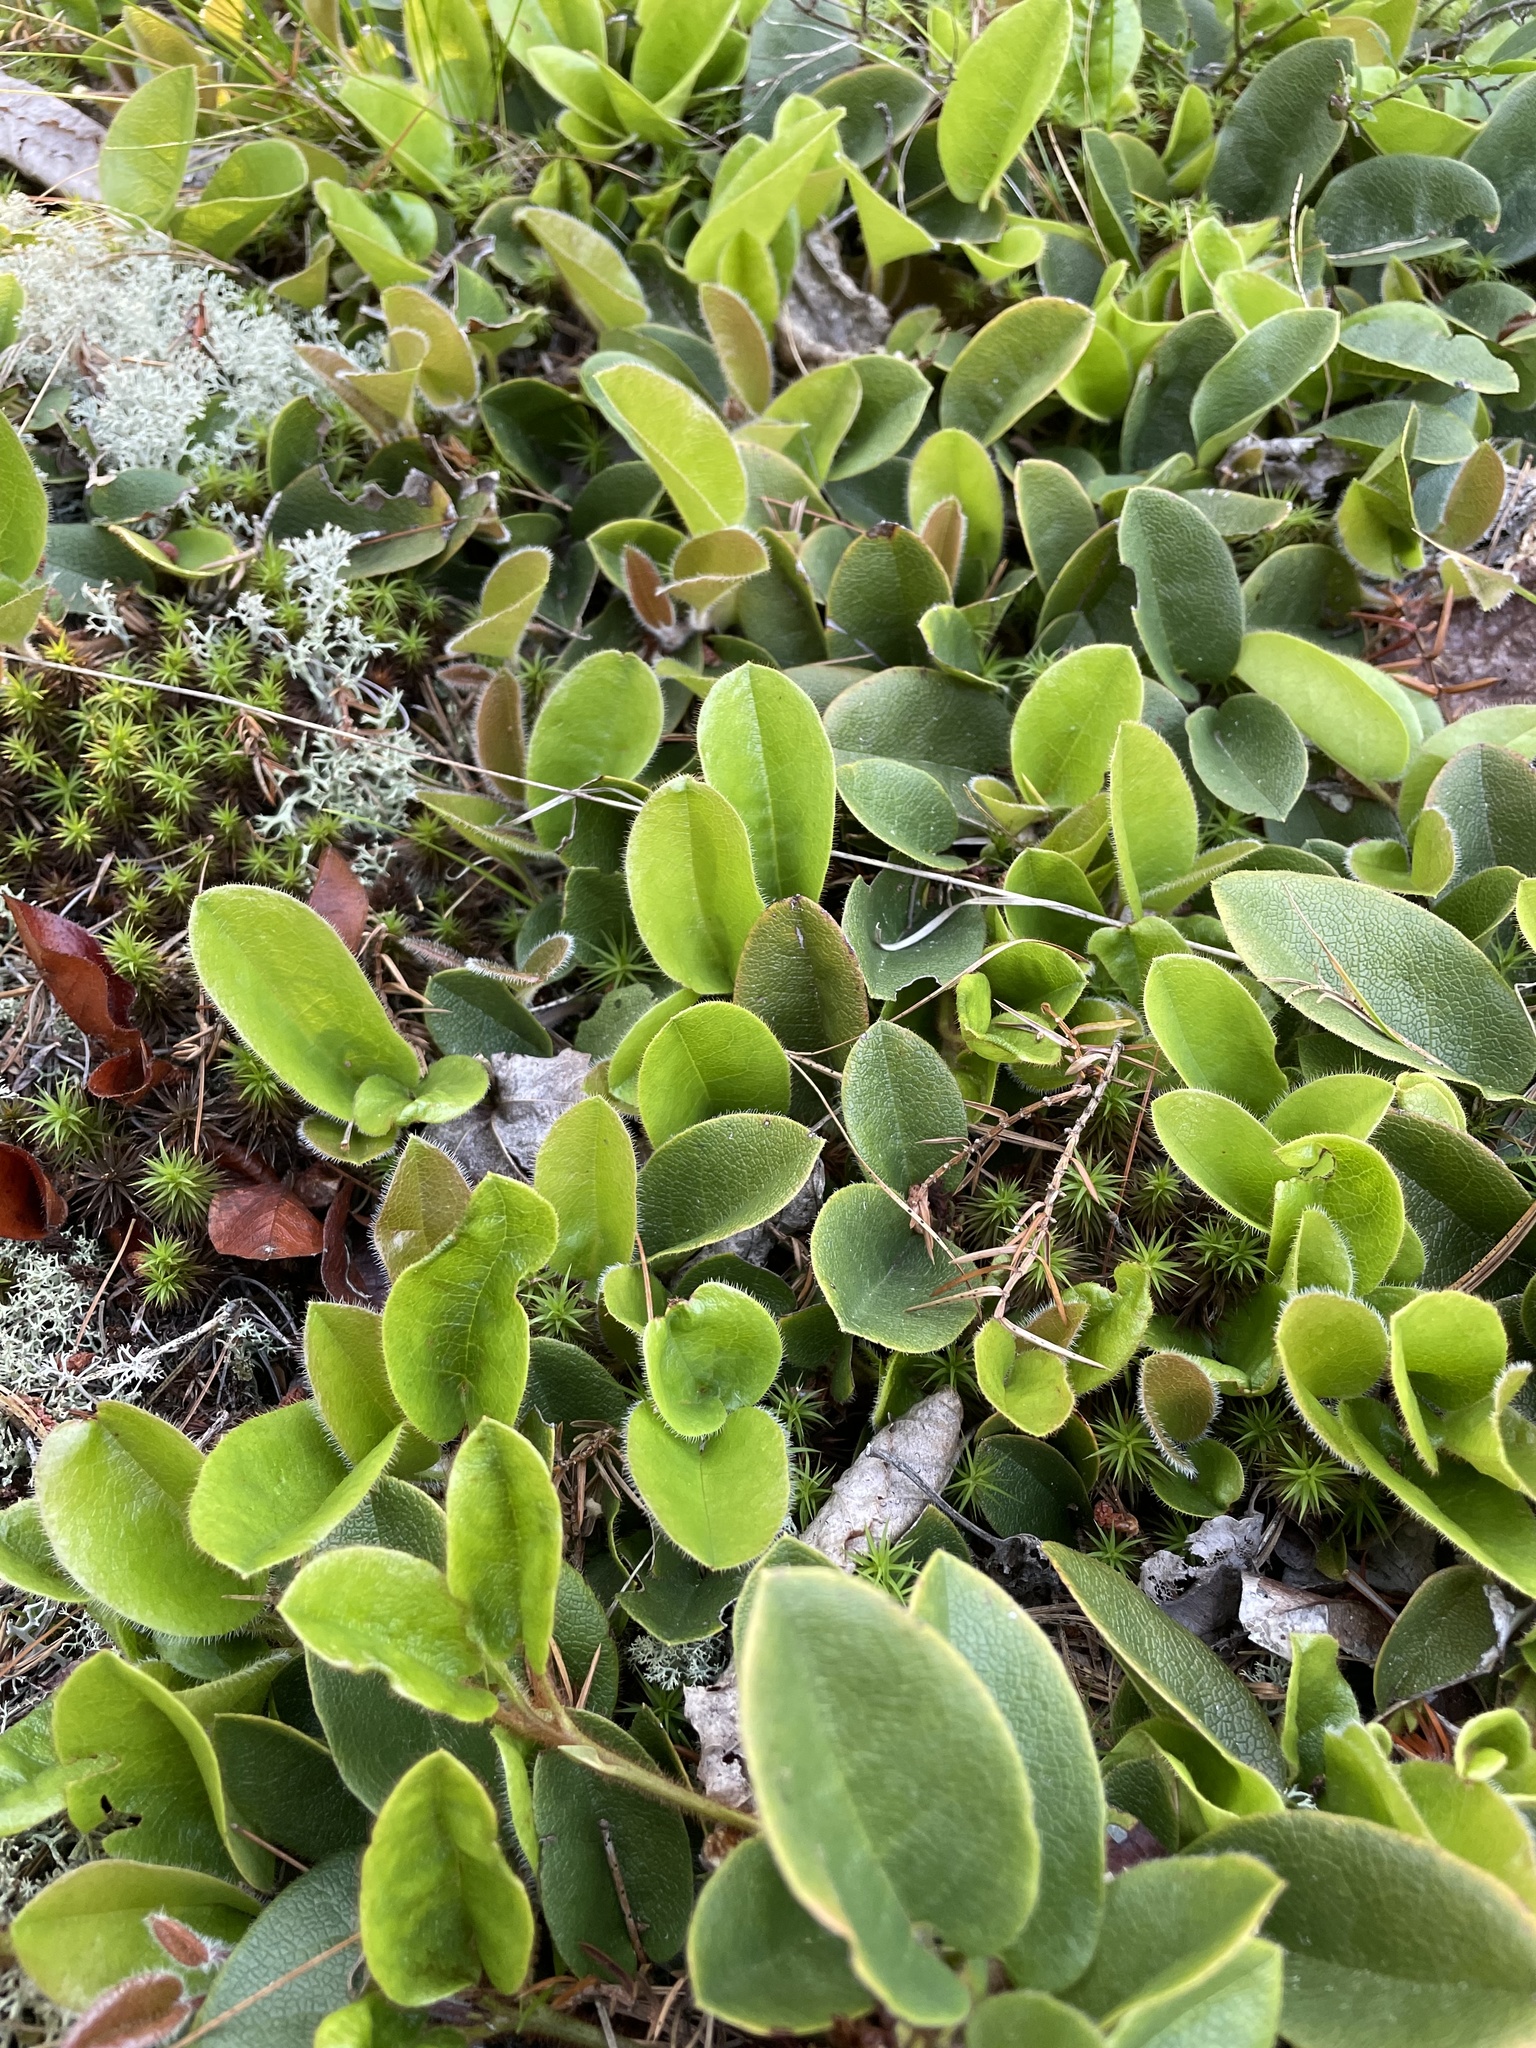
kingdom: Plantae
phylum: Tracheophyta
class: Magnoliopsida
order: Ericales
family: Ericaceae
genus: Epigaea
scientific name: Epigaea repens
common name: Gravelroot
